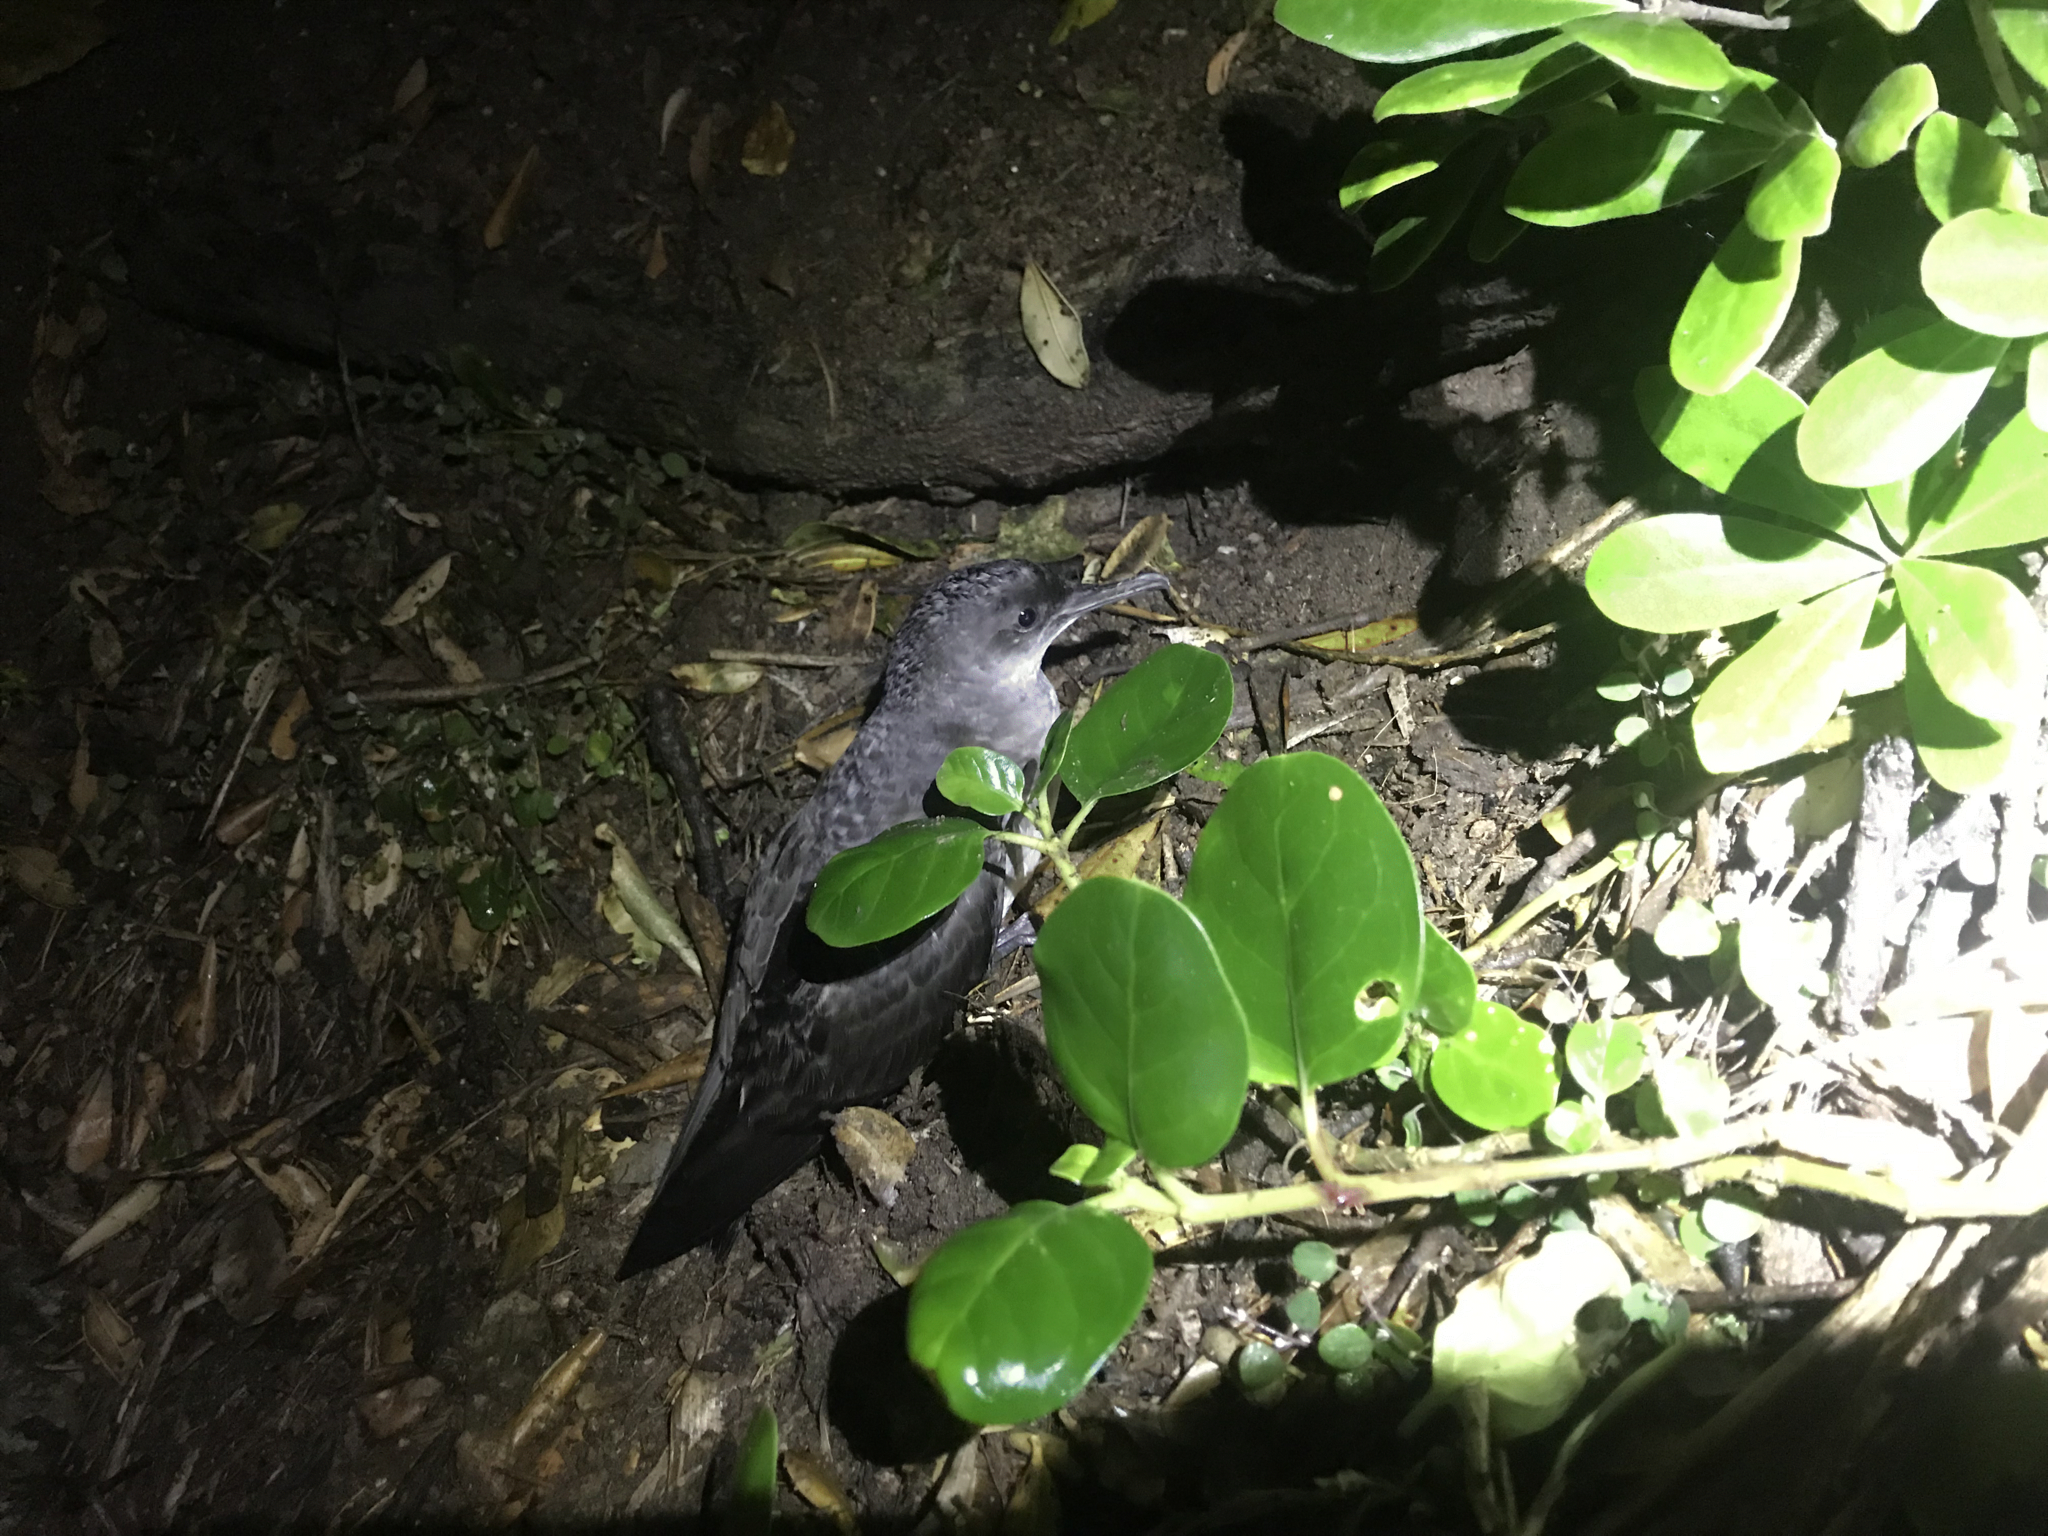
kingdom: Animalia
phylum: Chordata
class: Aves
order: Procellariiformes
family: Procellariidae
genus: Puffinus
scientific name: Puffinus gavia
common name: Fluttering shearwater
